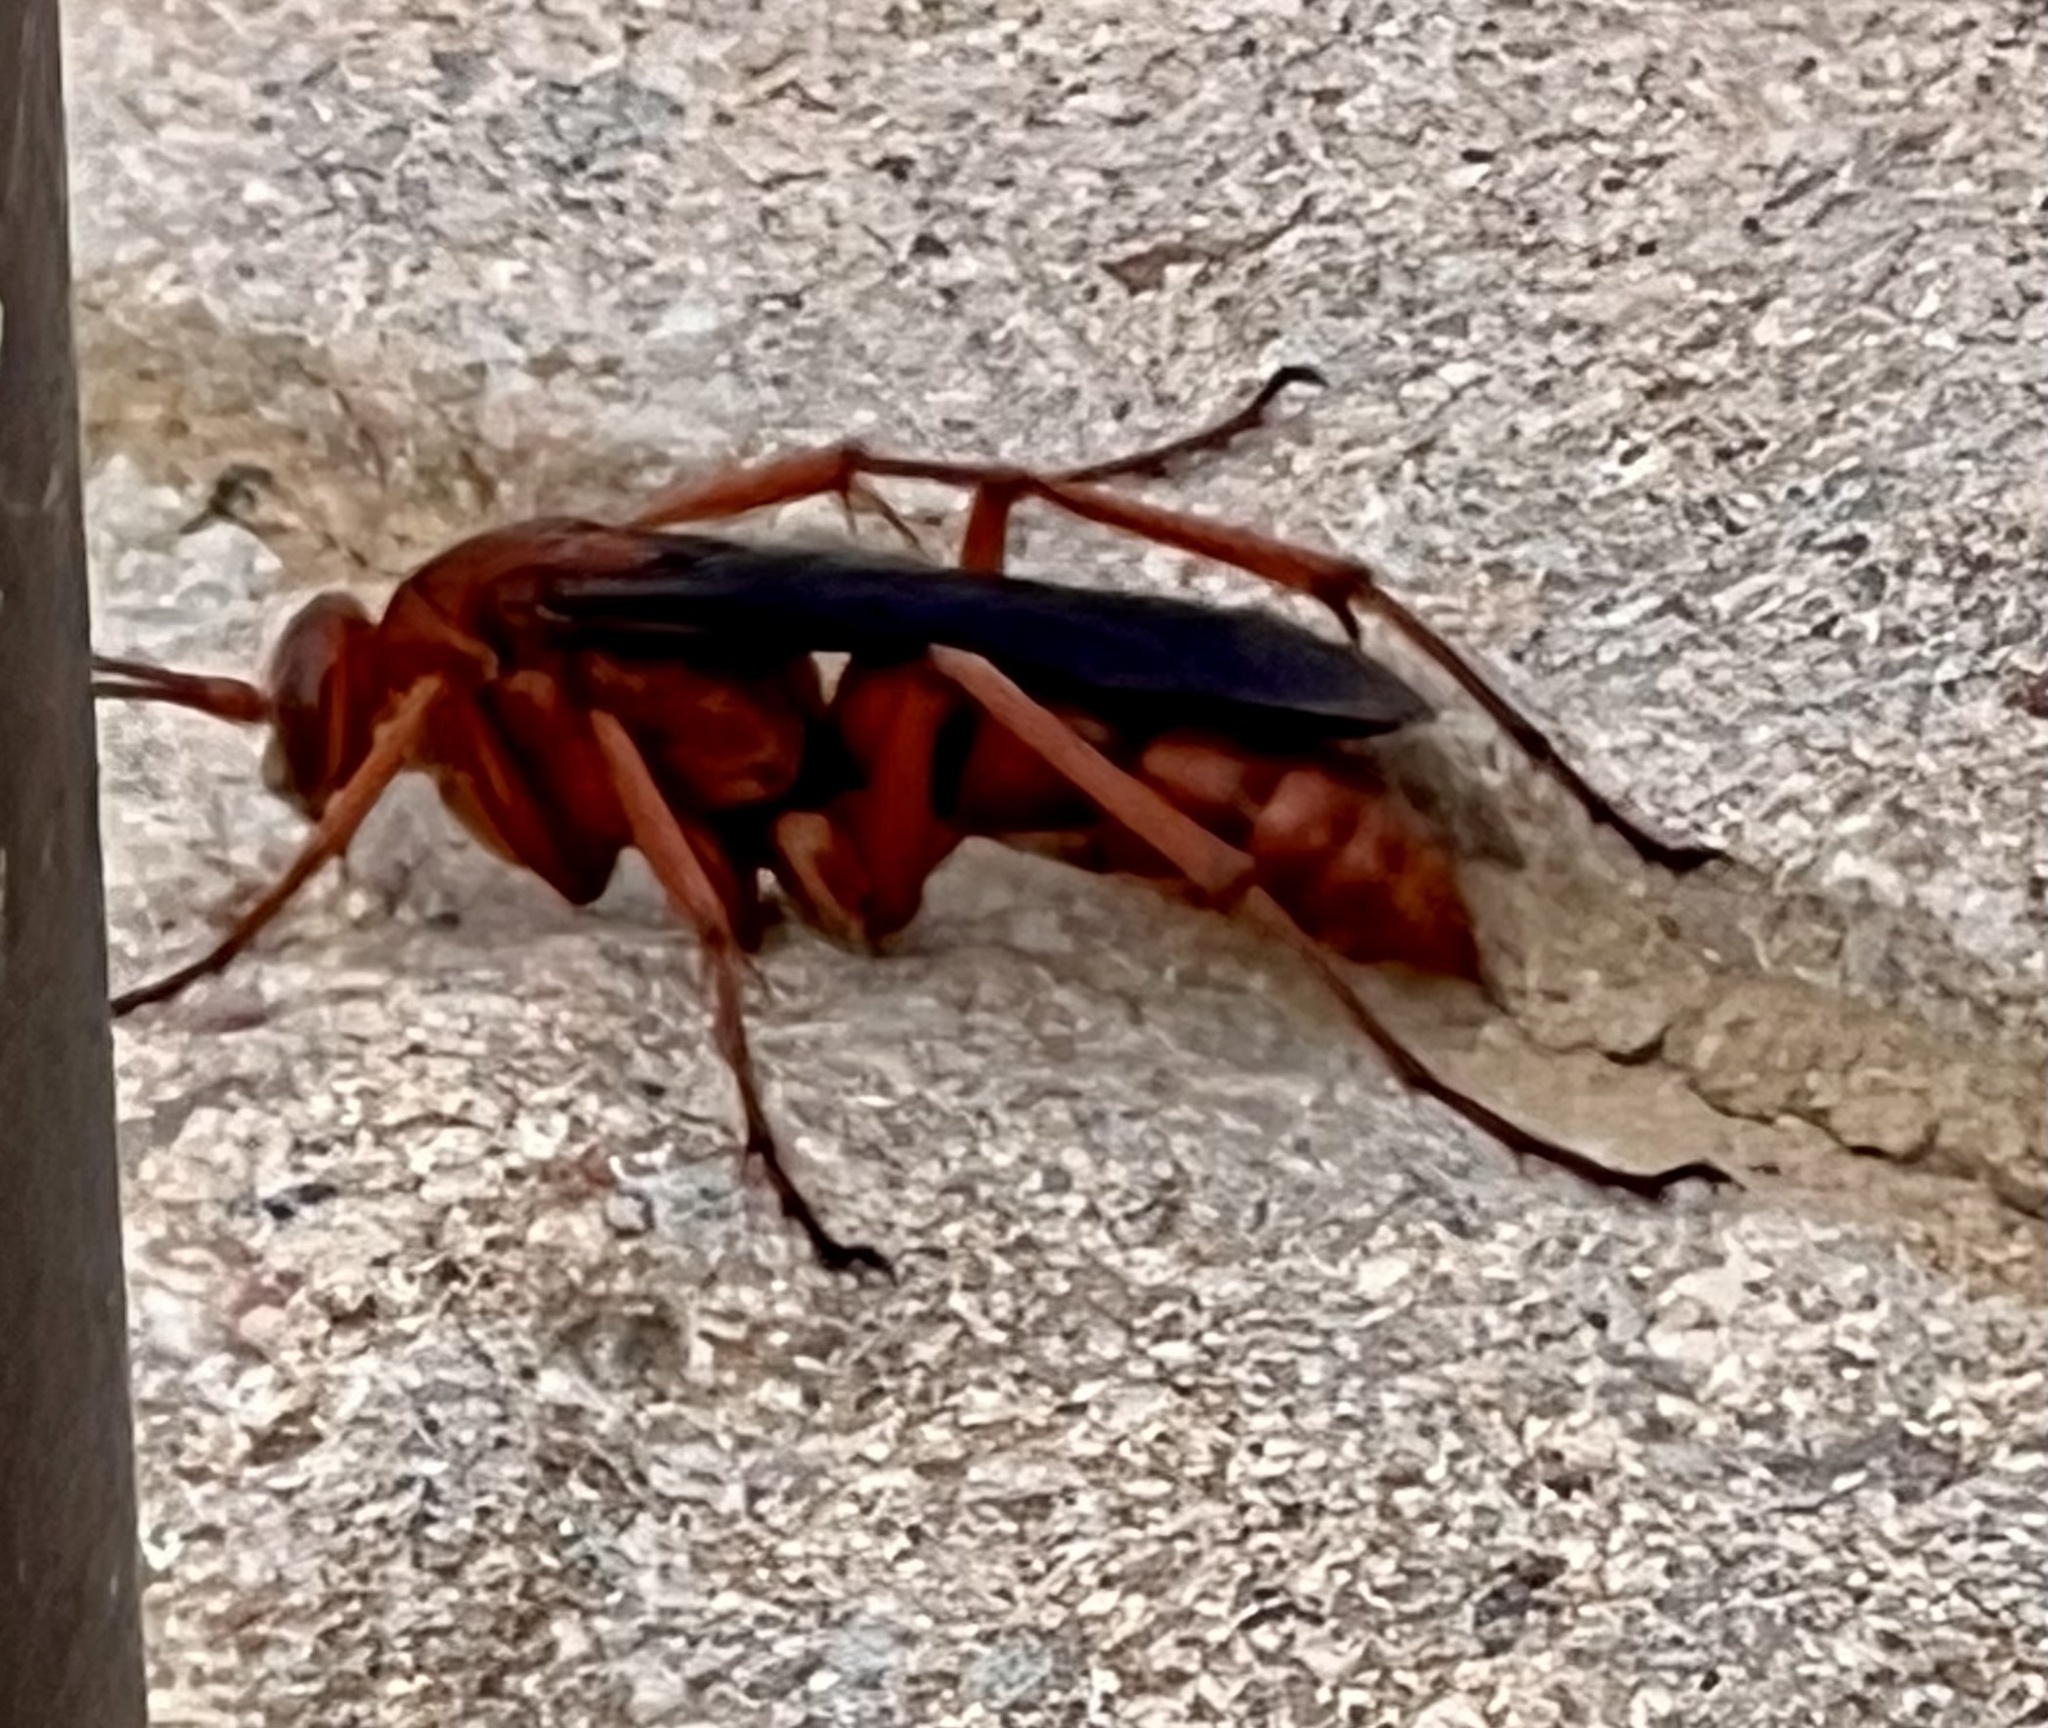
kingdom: Animalia
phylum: Arthropoda
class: Insecta
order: Hymenoptera
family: Pompilidae
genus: Tachypompilus
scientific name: Tachypompilus ferrugineus
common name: Rusty spider wasp
